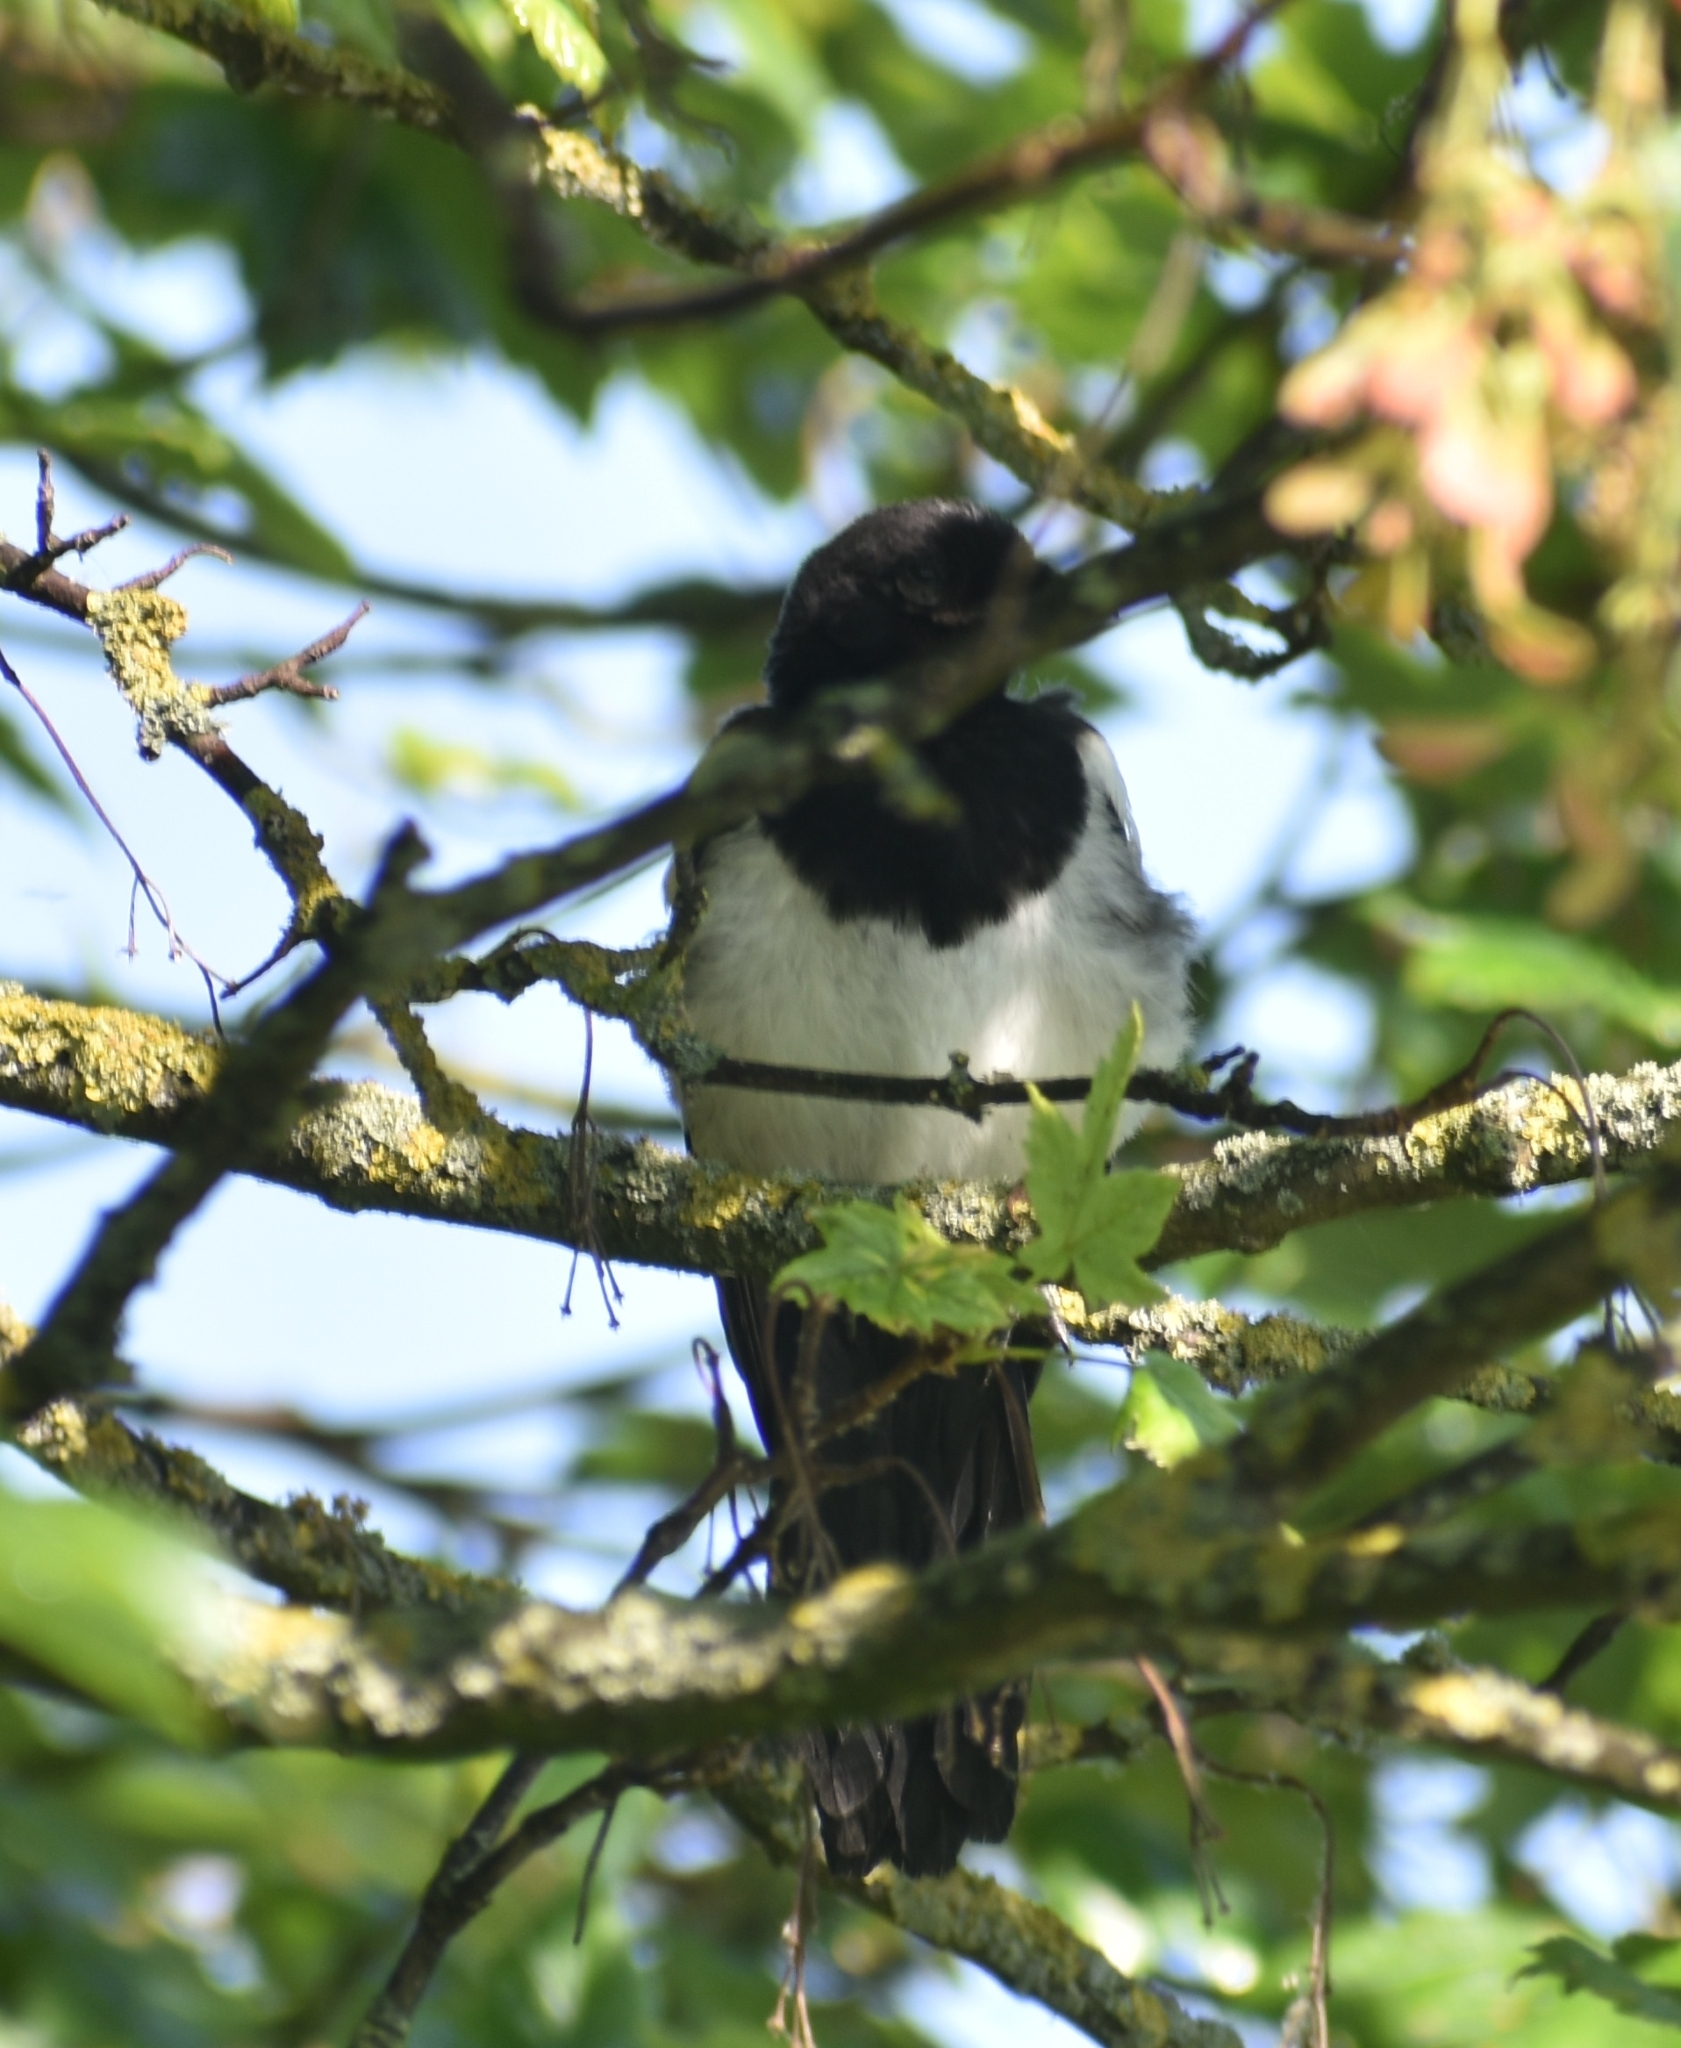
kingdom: Animalia
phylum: Chordata
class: Aves
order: Passeriformes
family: Corvidae
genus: Pica
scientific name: Pica pica
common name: Eurasian magpie
